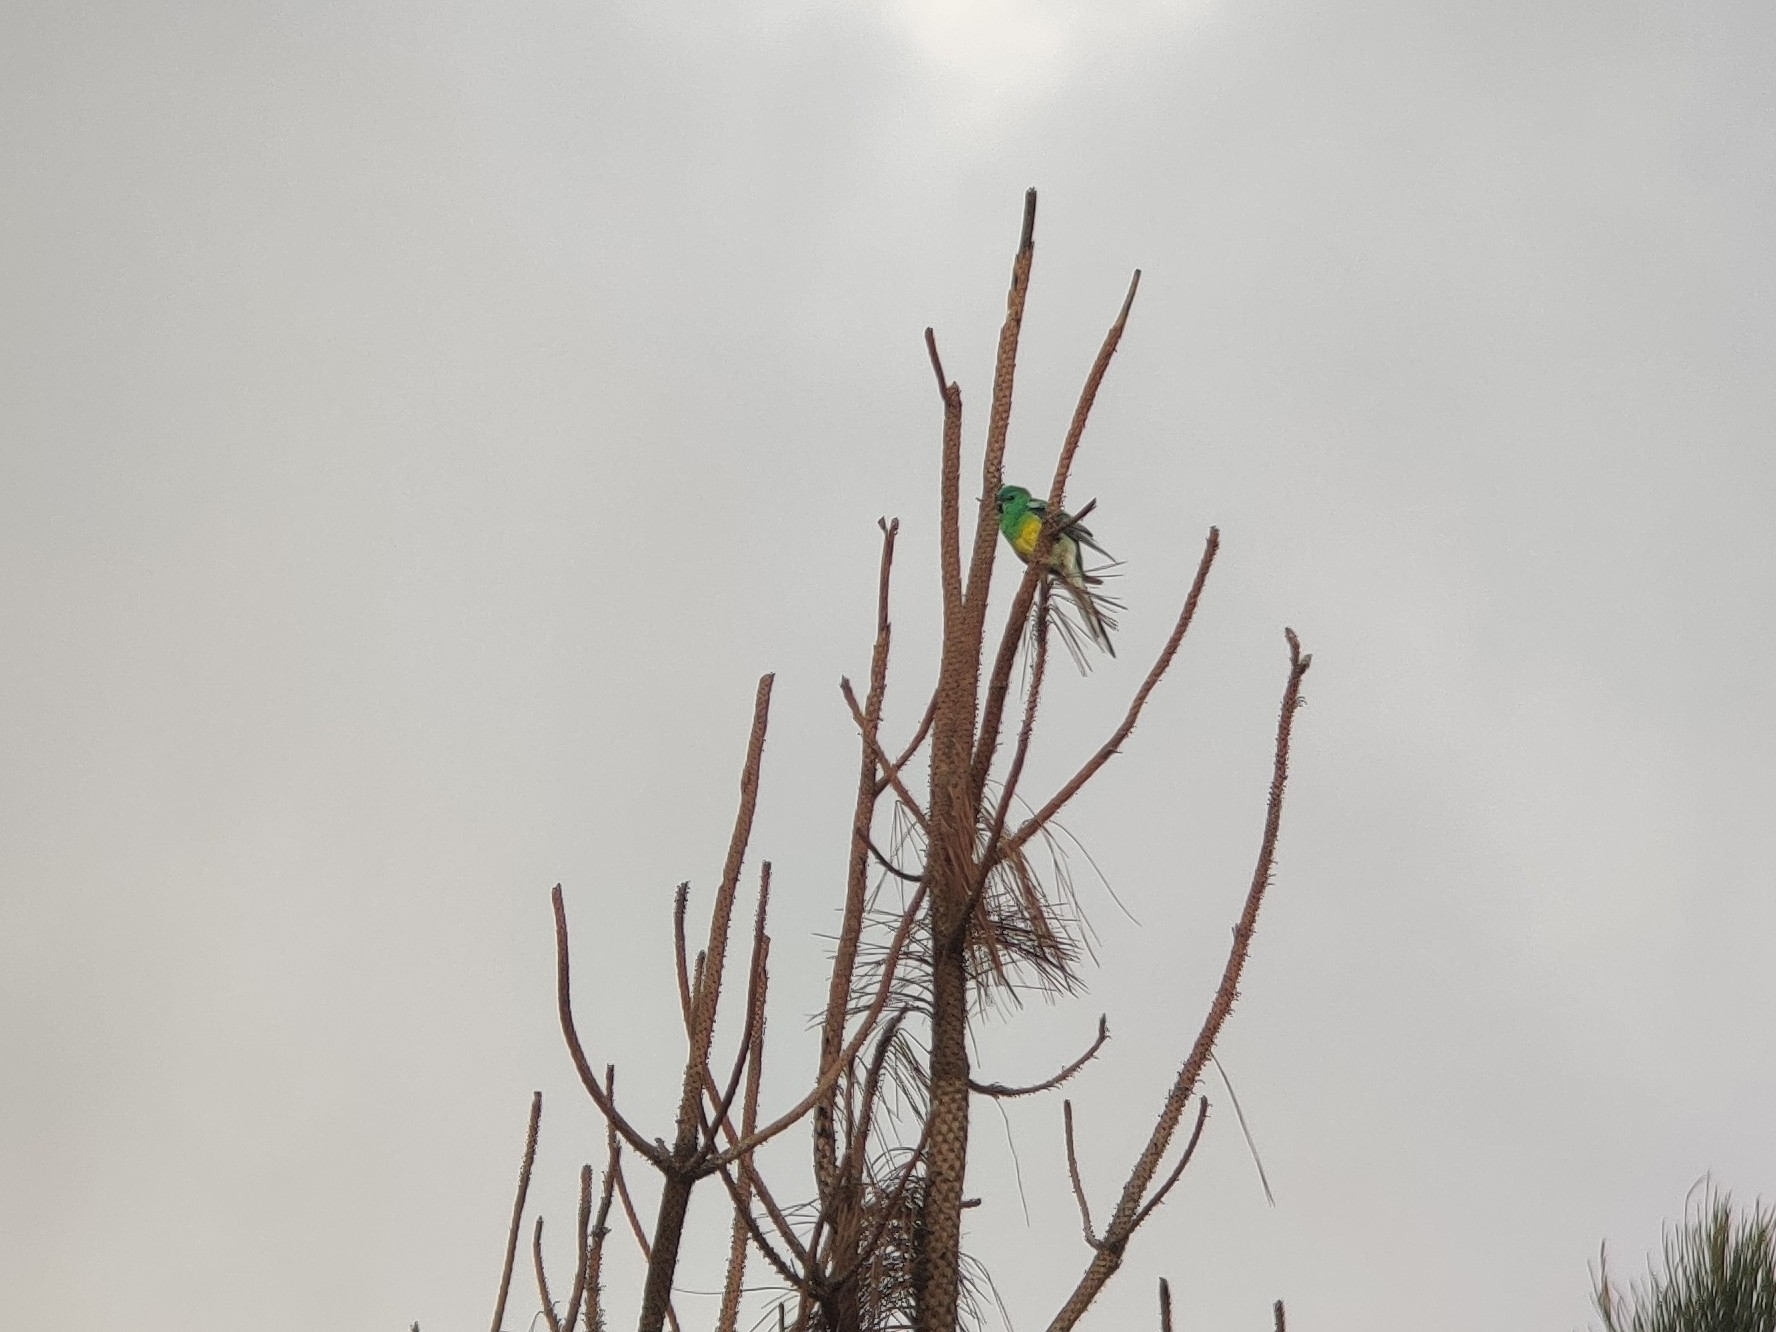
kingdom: Animalia
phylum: Chordata
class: Aves
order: Psittaciformes
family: Psittacidae
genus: Psephotus
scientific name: Psephotus haematonotus
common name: Red-rumped parrot
